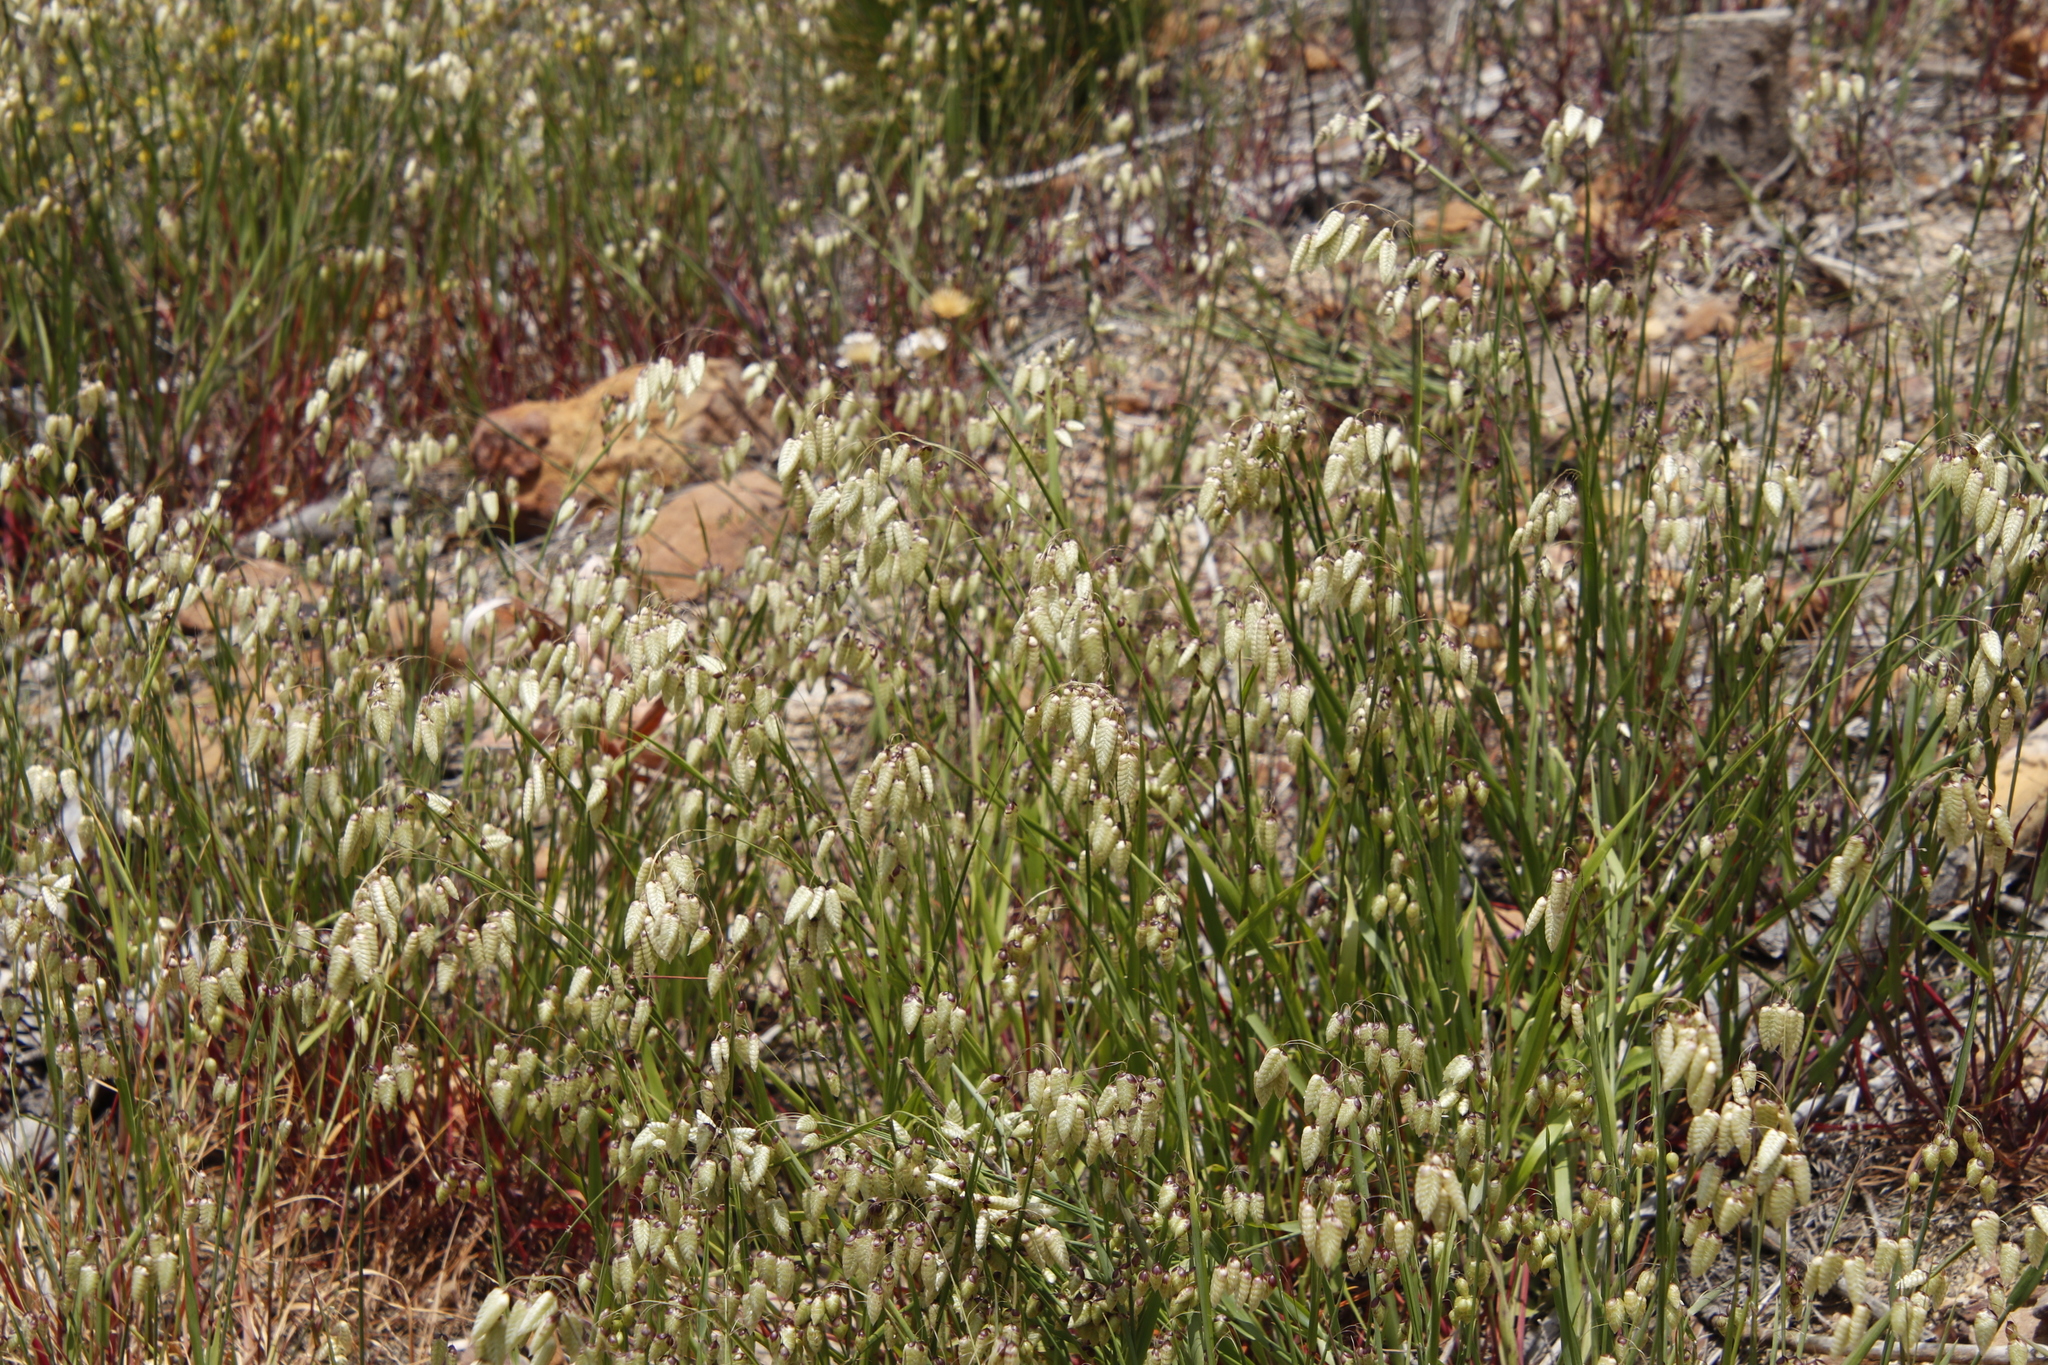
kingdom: Plantae
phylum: Tracheophyta
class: Liliopsida
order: Poales
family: Poaceae
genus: Briza
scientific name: Briza maxima
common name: Big quakinggrass
